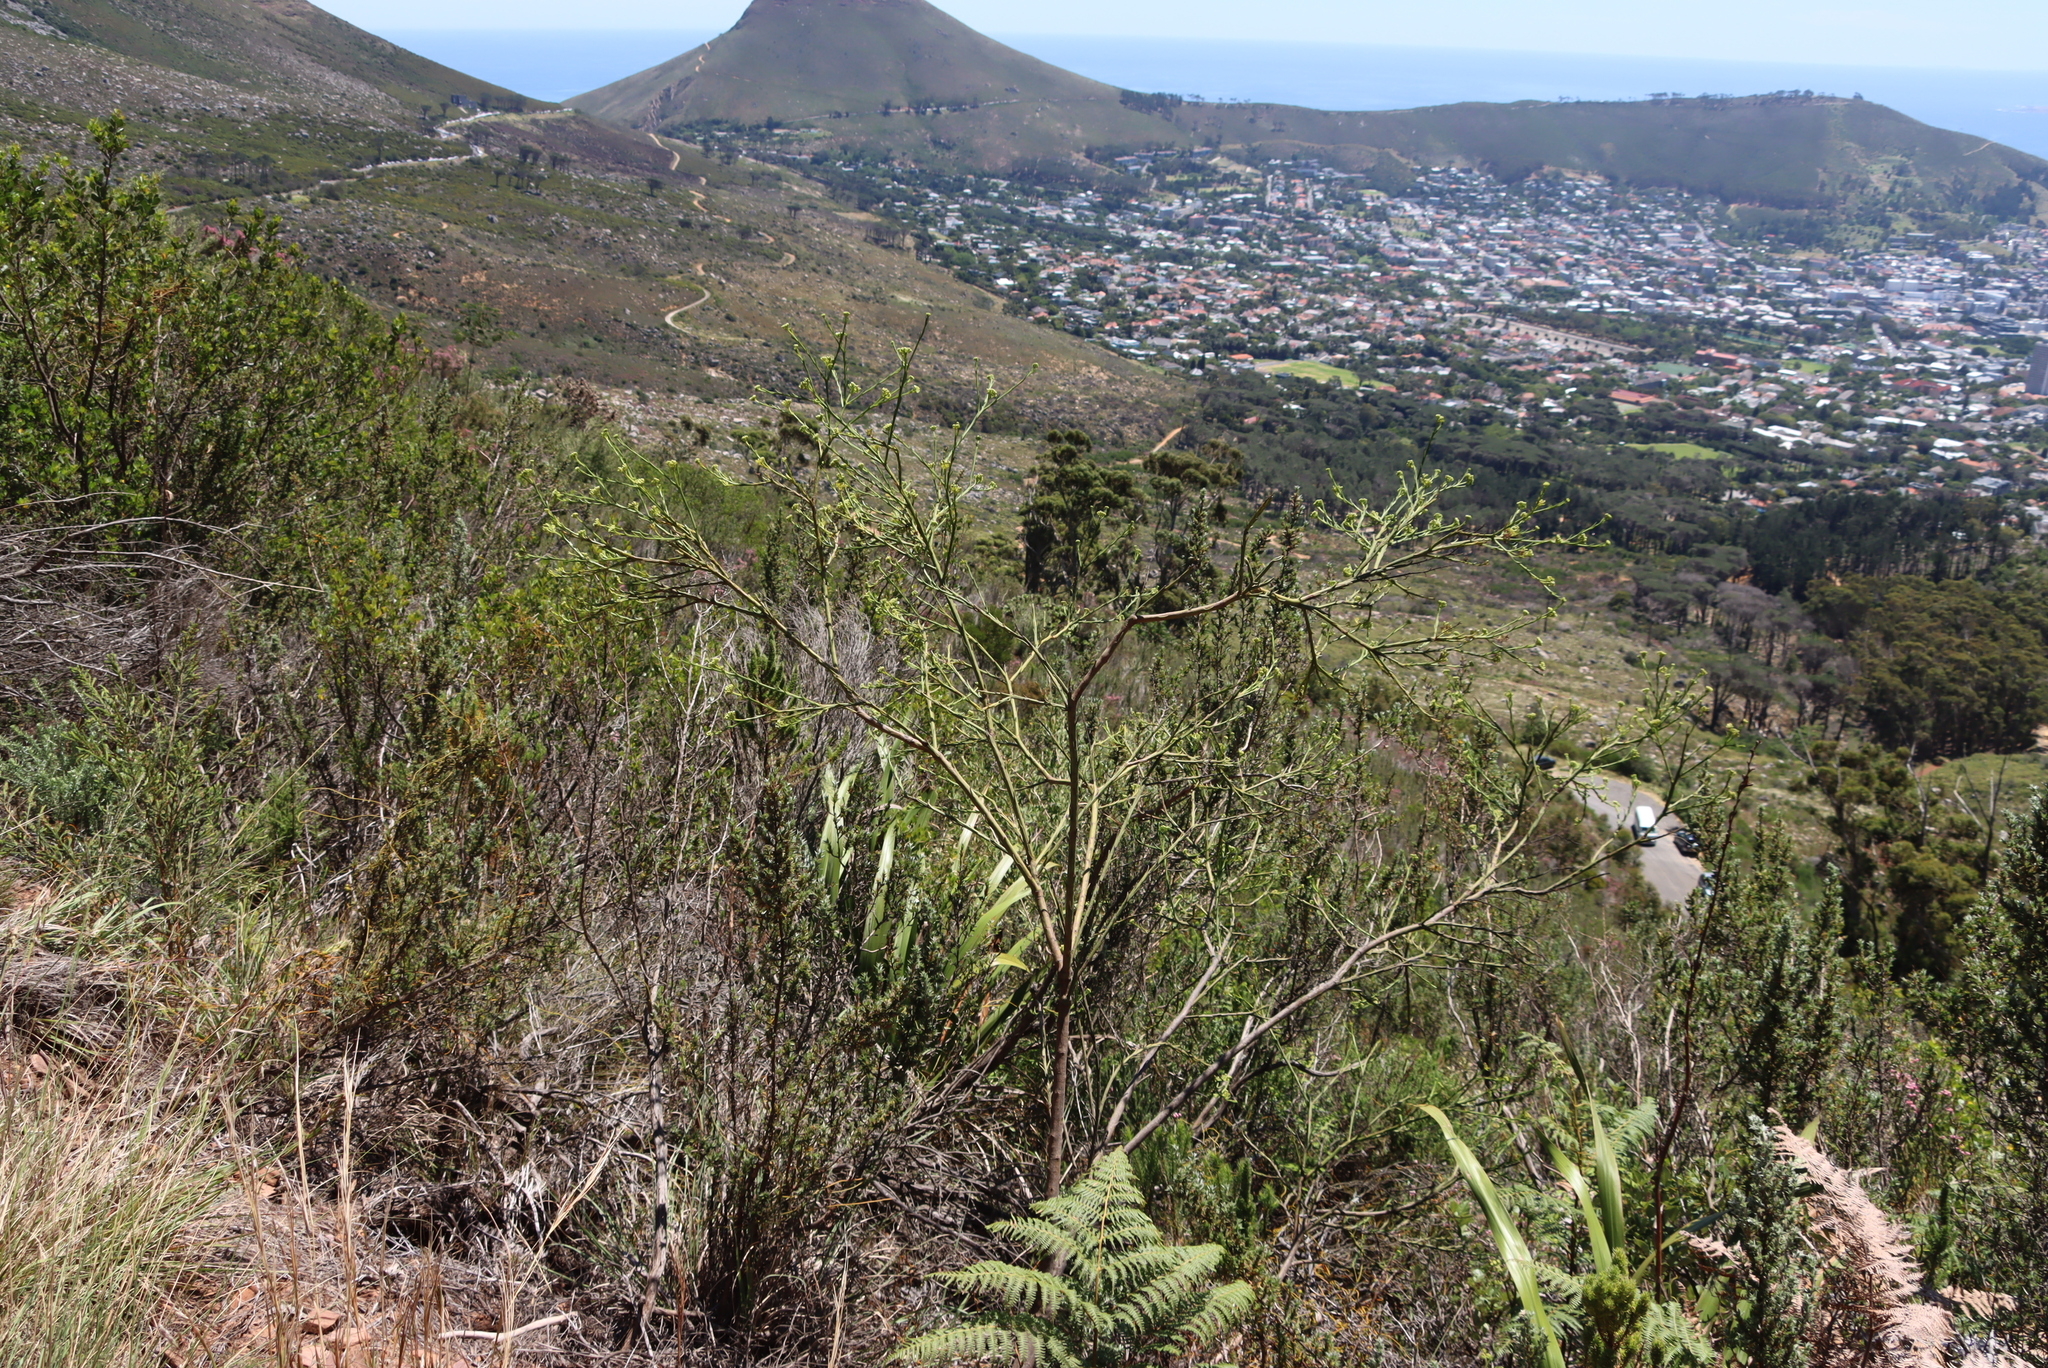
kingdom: Plantae
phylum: Tracheophyta
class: Magnoliopsida
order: Santalales
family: Thesiaceae
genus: Thesium
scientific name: Thesium strictum
